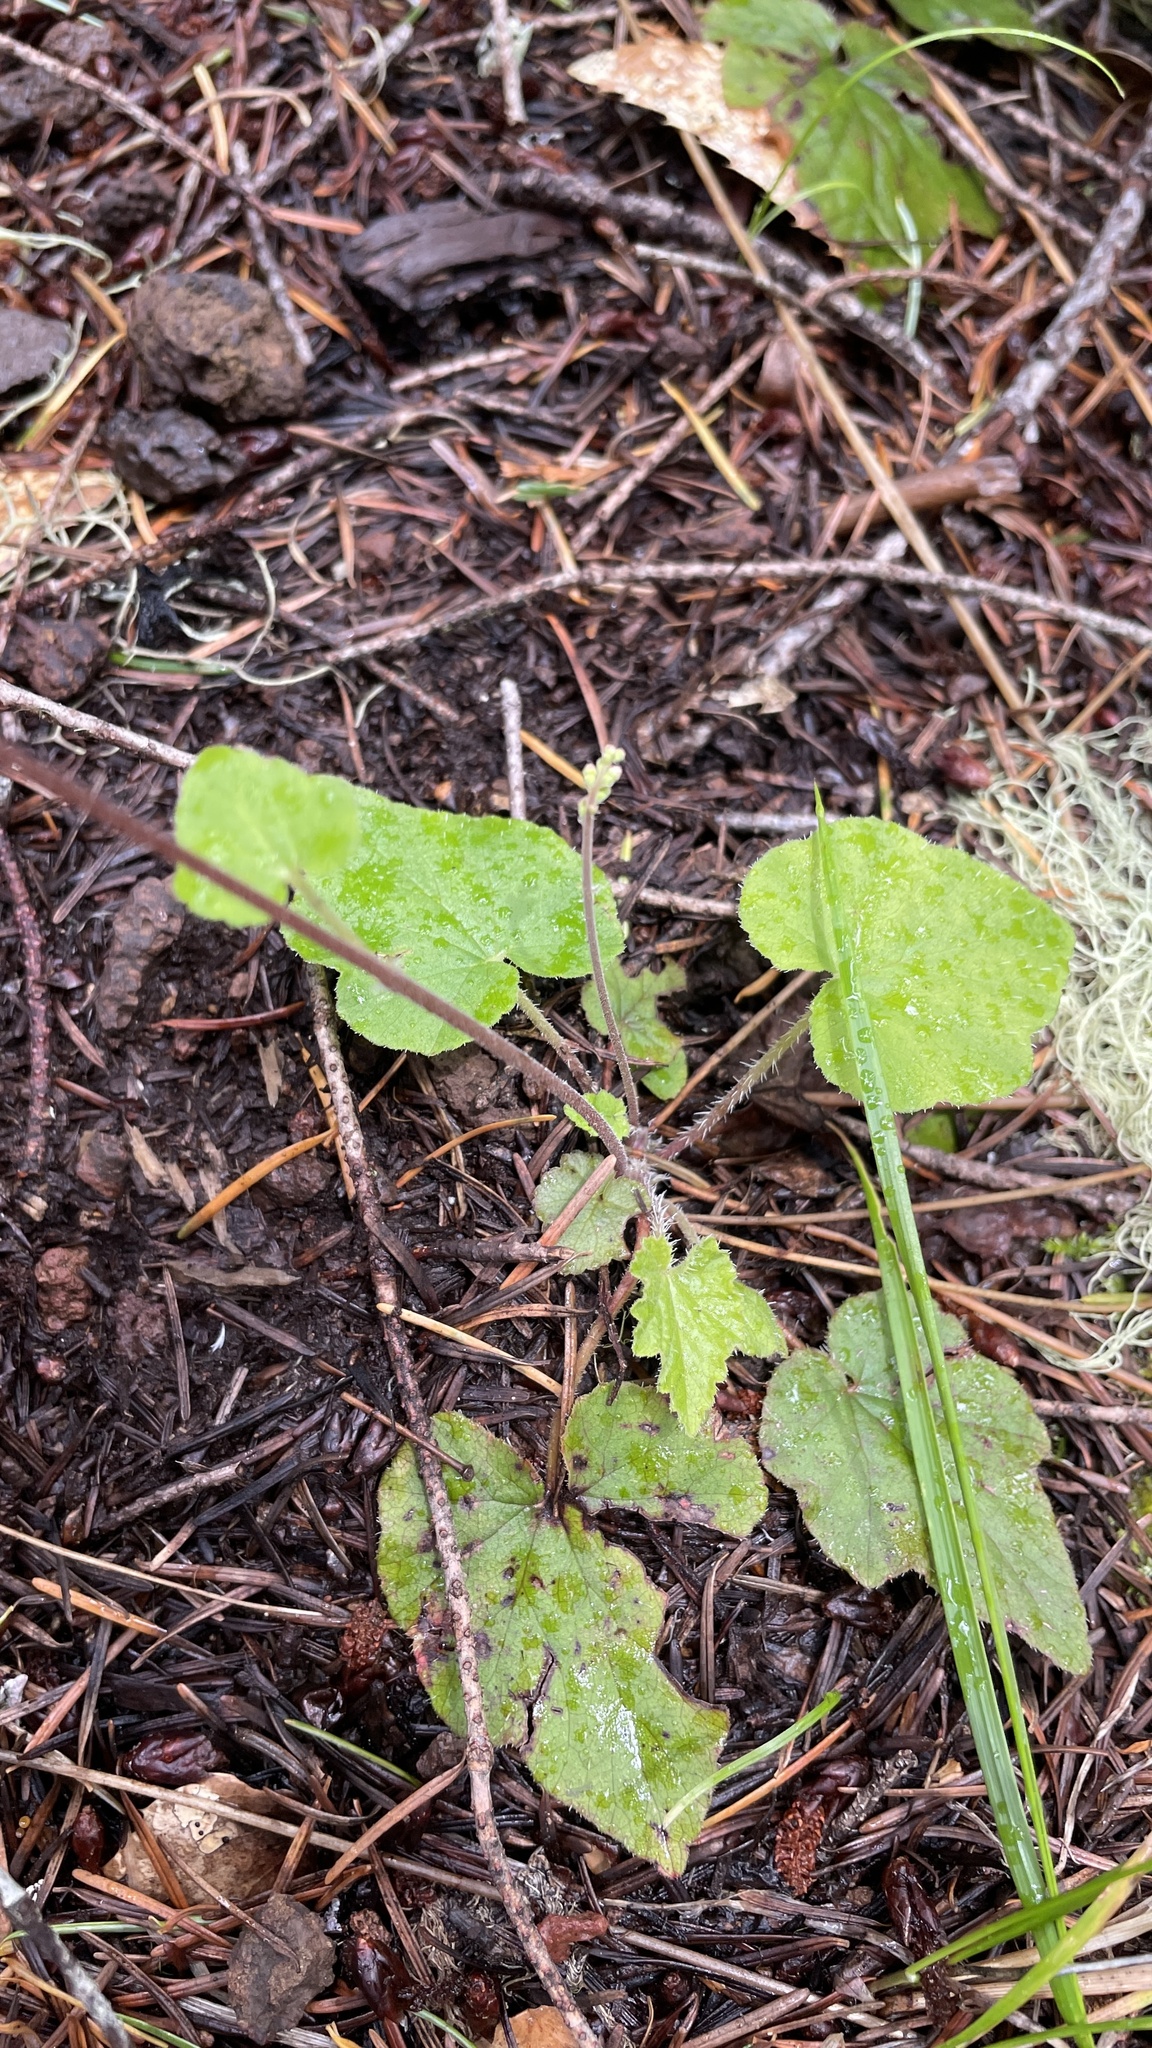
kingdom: Plantae
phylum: Tracheophyta
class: Magnoliopsida
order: Saxifragales
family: Saxifragaceae
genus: Ozomelis
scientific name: Ozomelis trifida
